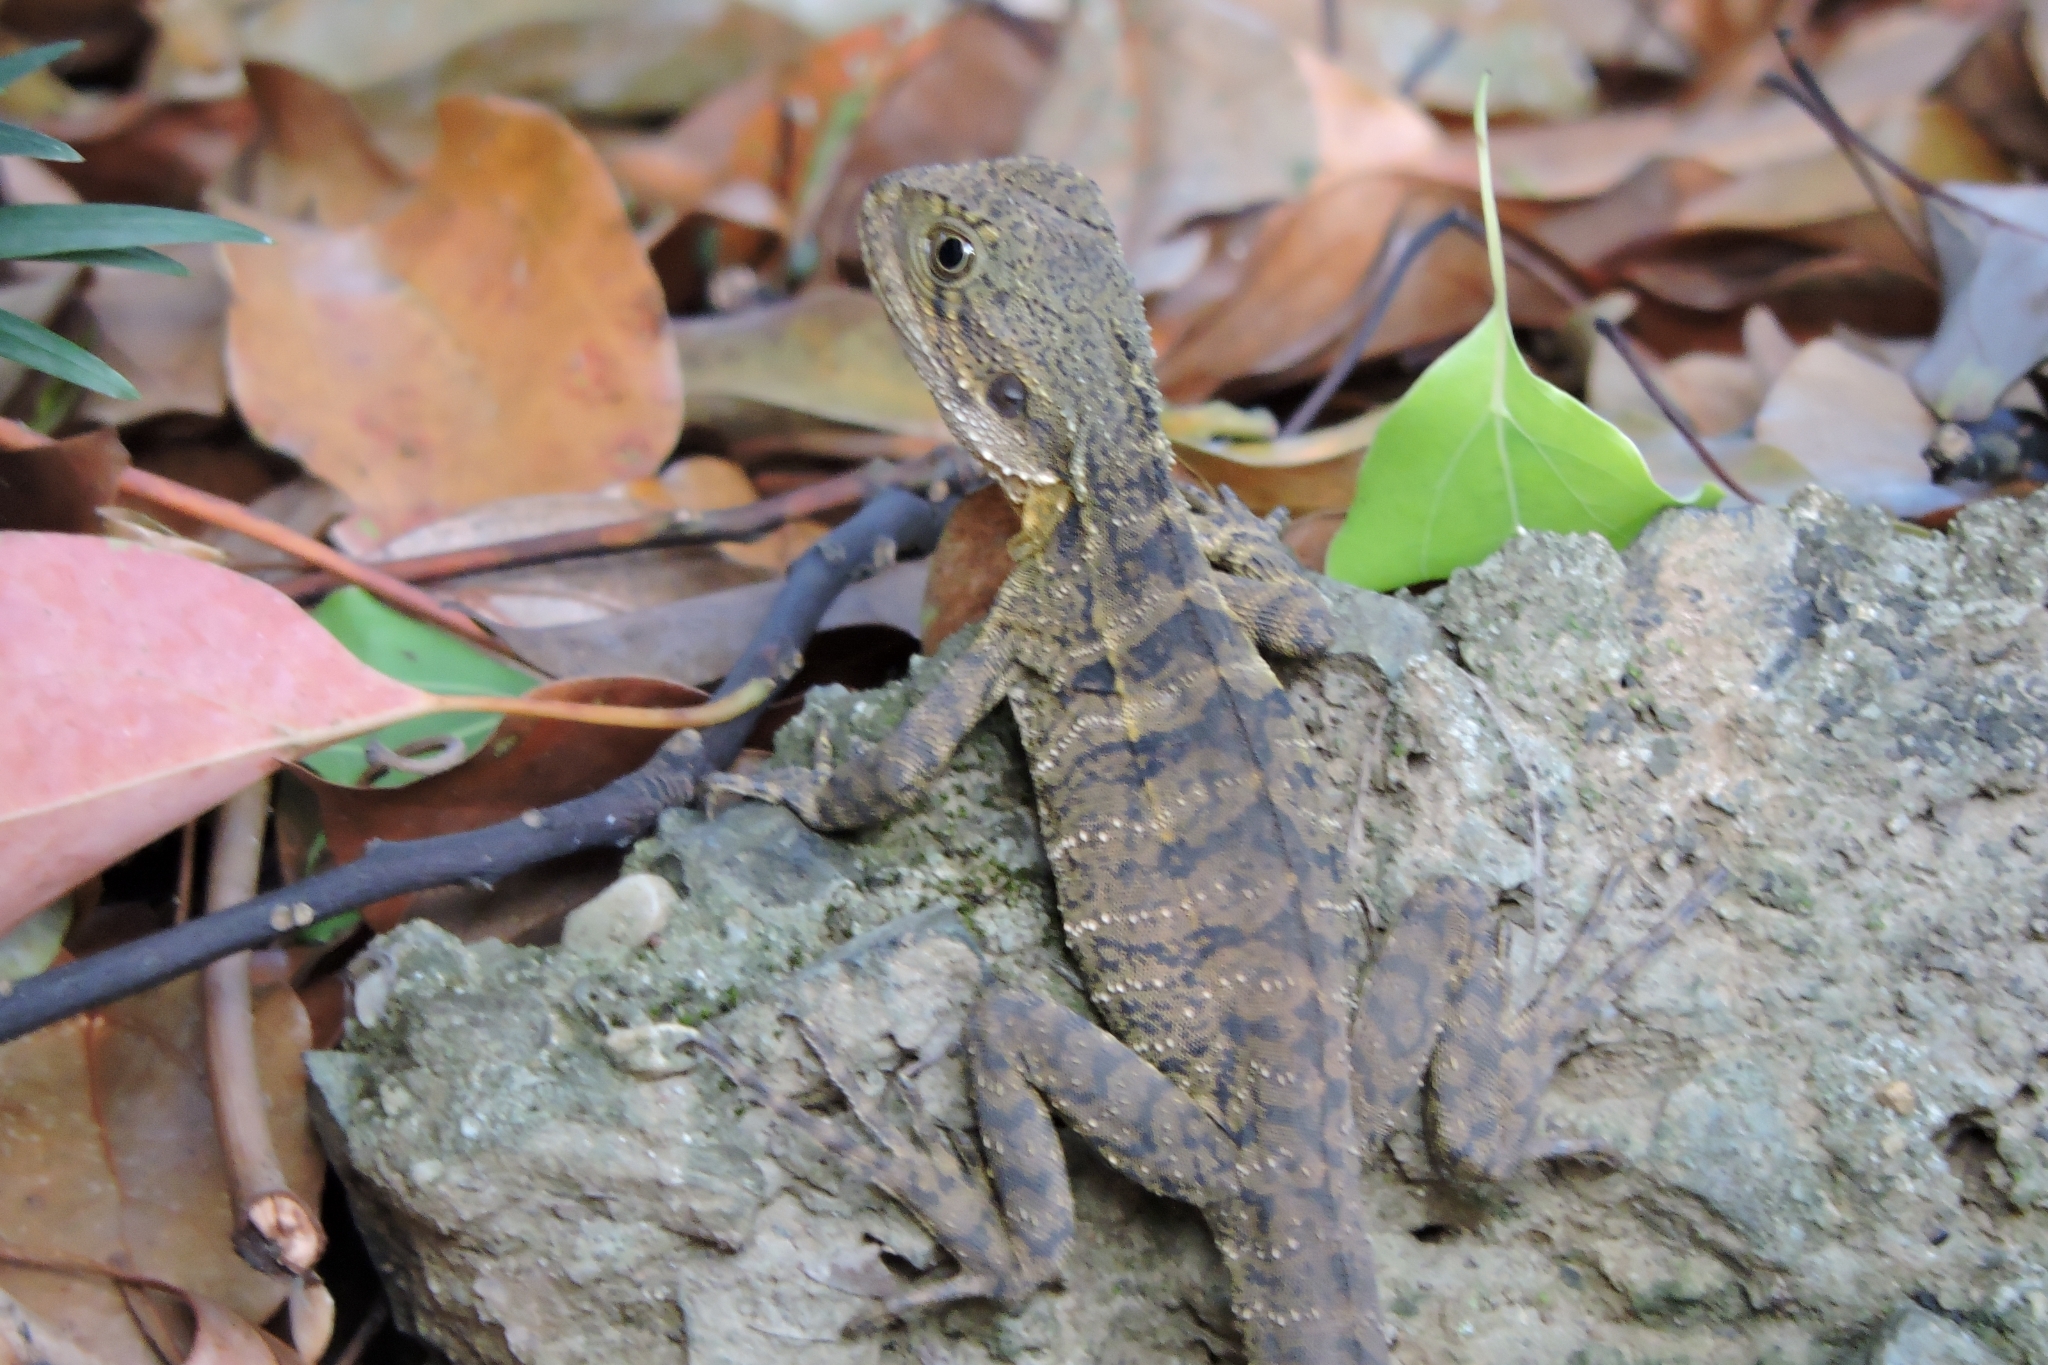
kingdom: Animalia
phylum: Chordata
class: Squamata
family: Agamidae
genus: Intellagama
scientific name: Intellagama lesueurii
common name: Eastern water dragon
